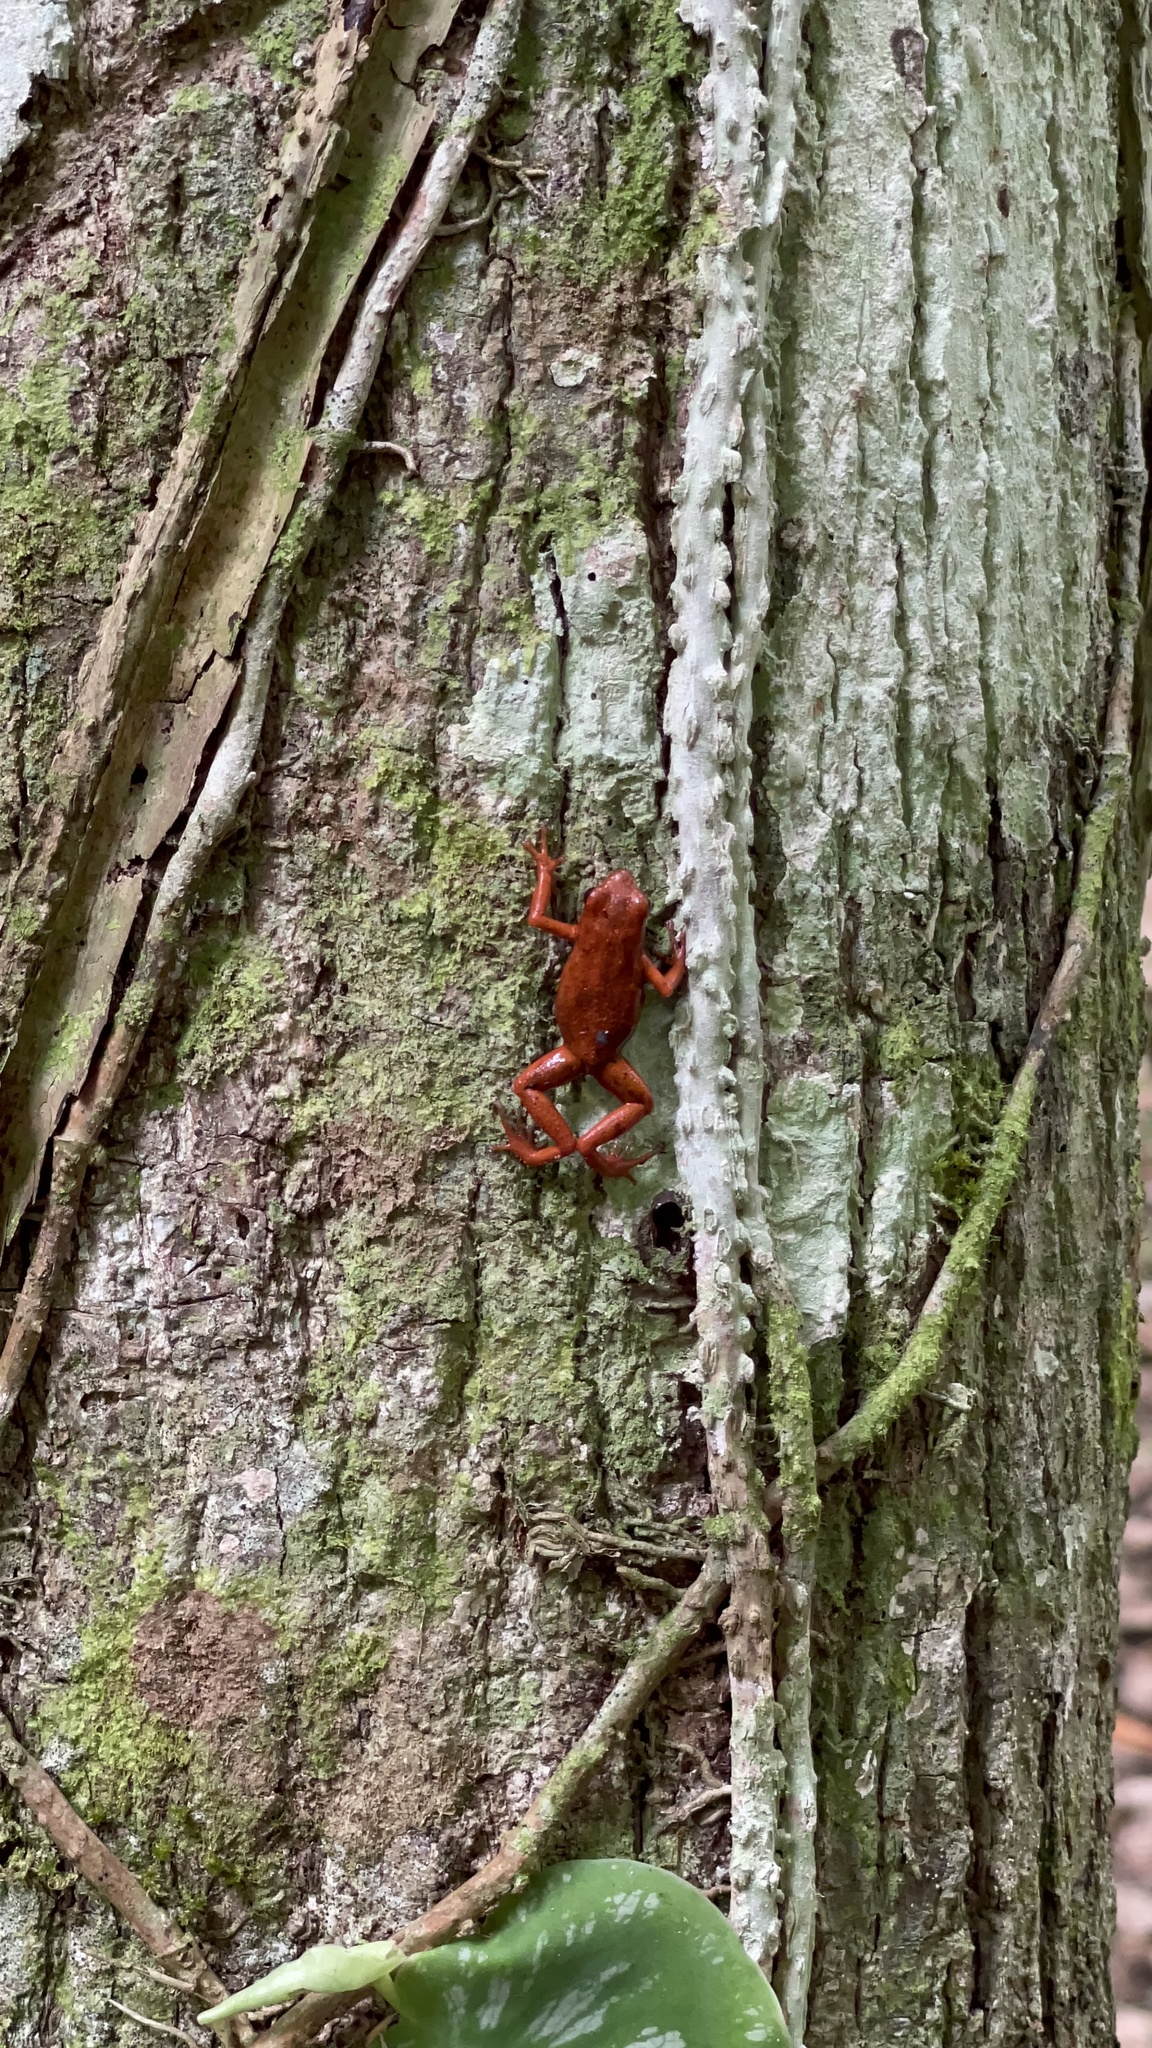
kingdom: Animalia
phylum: Chordata
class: Amphibia
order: Anura
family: Dendrobatidae
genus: Oophaga
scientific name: Oophaga pumilio
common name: Flaming poison frog
